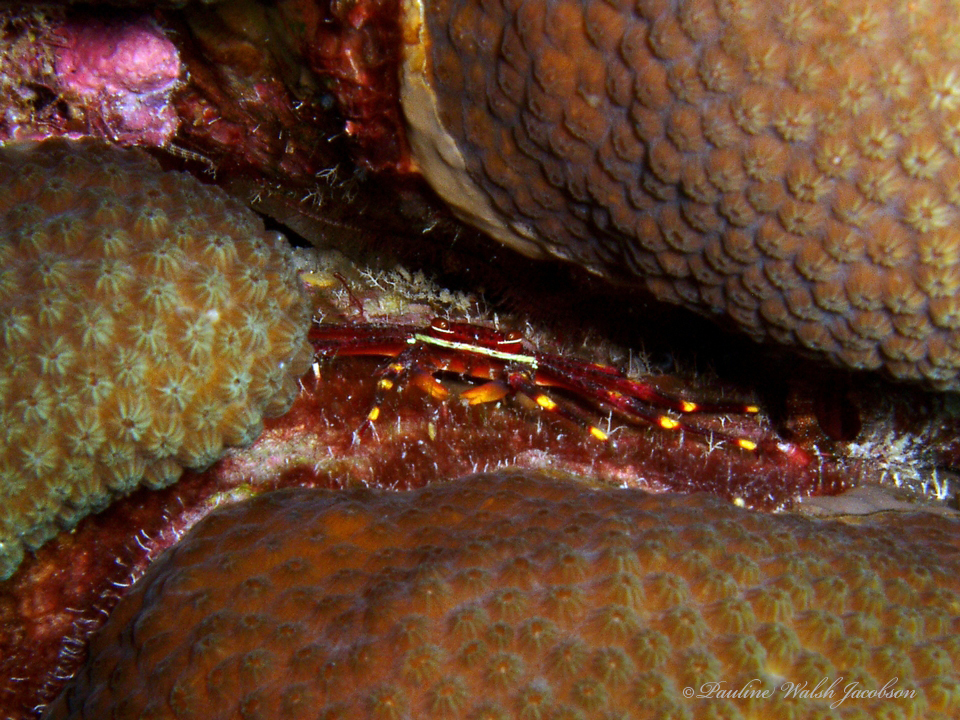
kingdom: Animalia
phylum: Arthropoda
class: Malacostraca
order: Decapoda
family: Percnidae
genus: Percnon
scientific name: Percnon gibbesi
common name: Nimble spray crab
